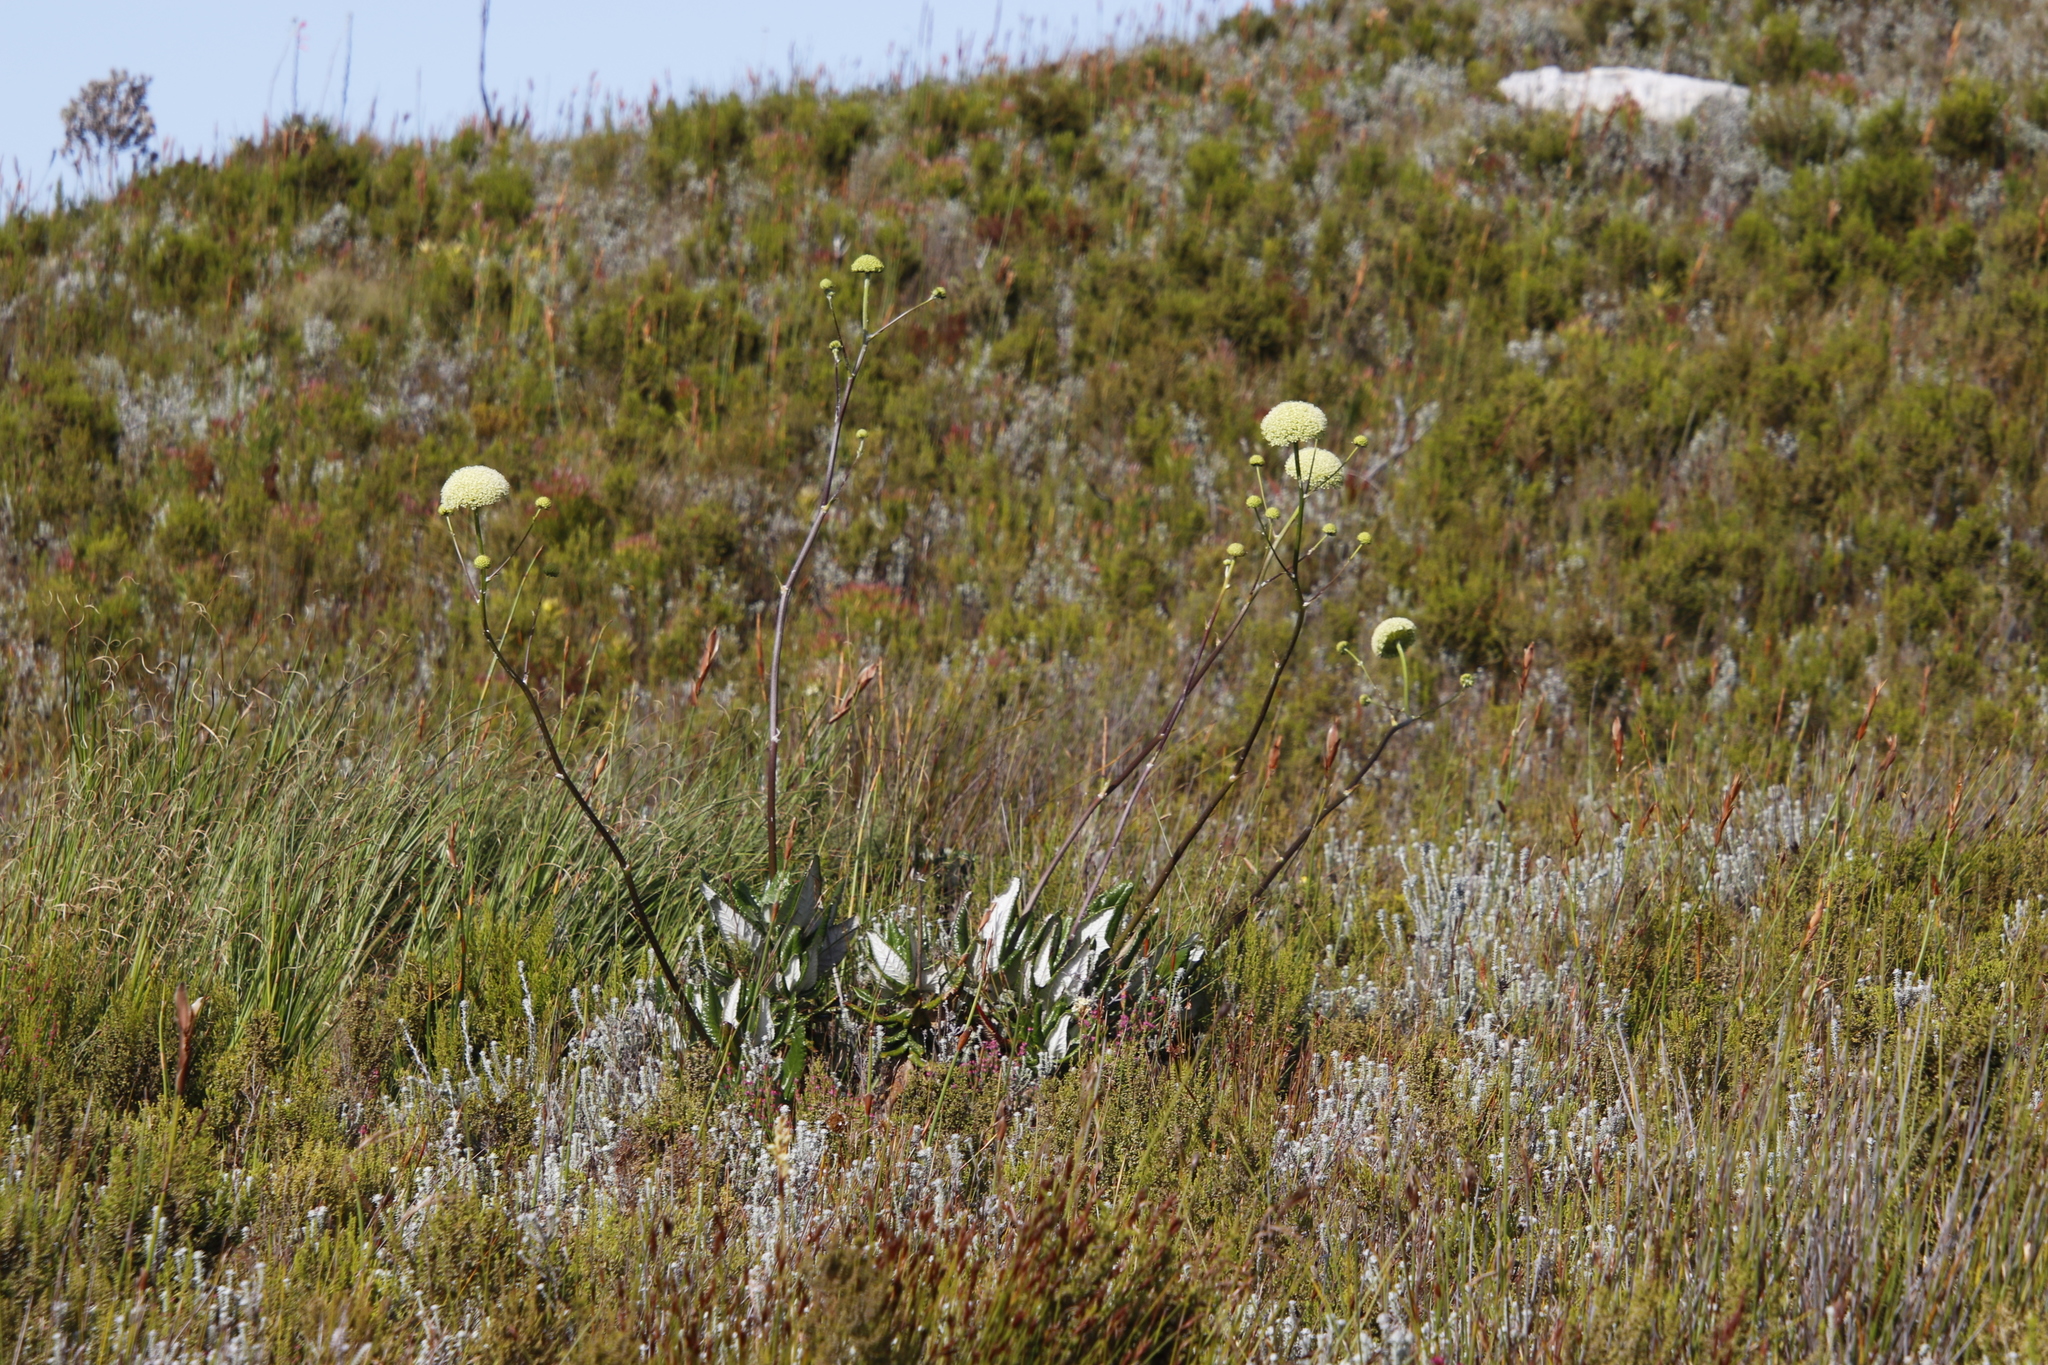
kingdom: Plantae
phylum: Tracheophyta
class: Magnoliopsida
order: Apiales
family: Apiaceae
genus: Hermas
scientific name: Hermas villosa
